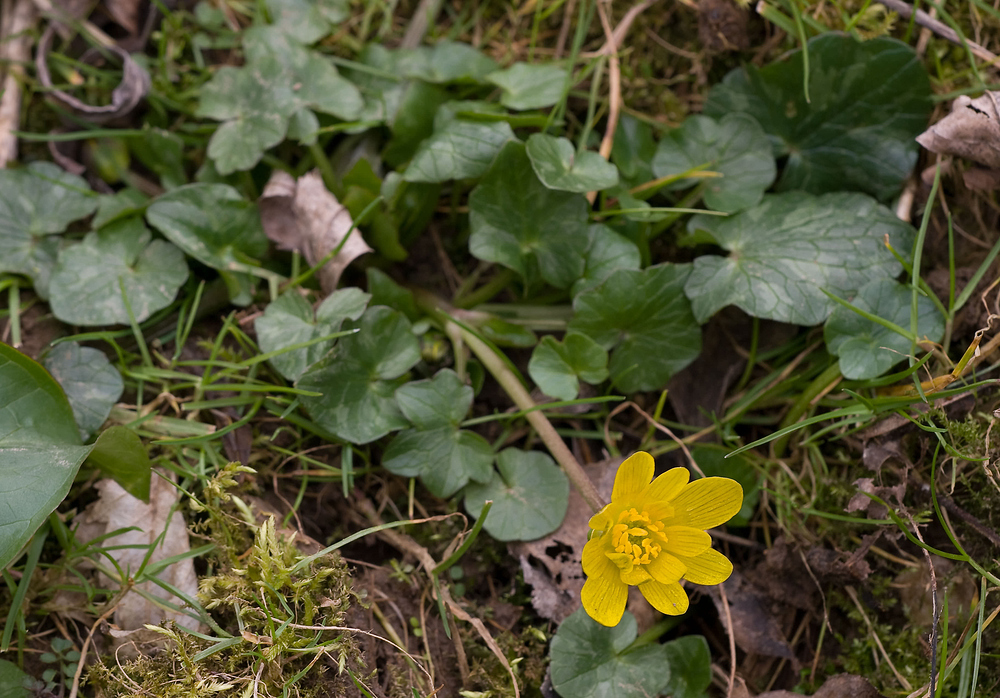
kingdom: Plantae
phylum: Tracheophyta
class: Magnoliopsida
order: Ranunculales
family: Ranunculaceae
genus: Ficaria
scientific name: Ficaria verna
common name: Lesser celandine
